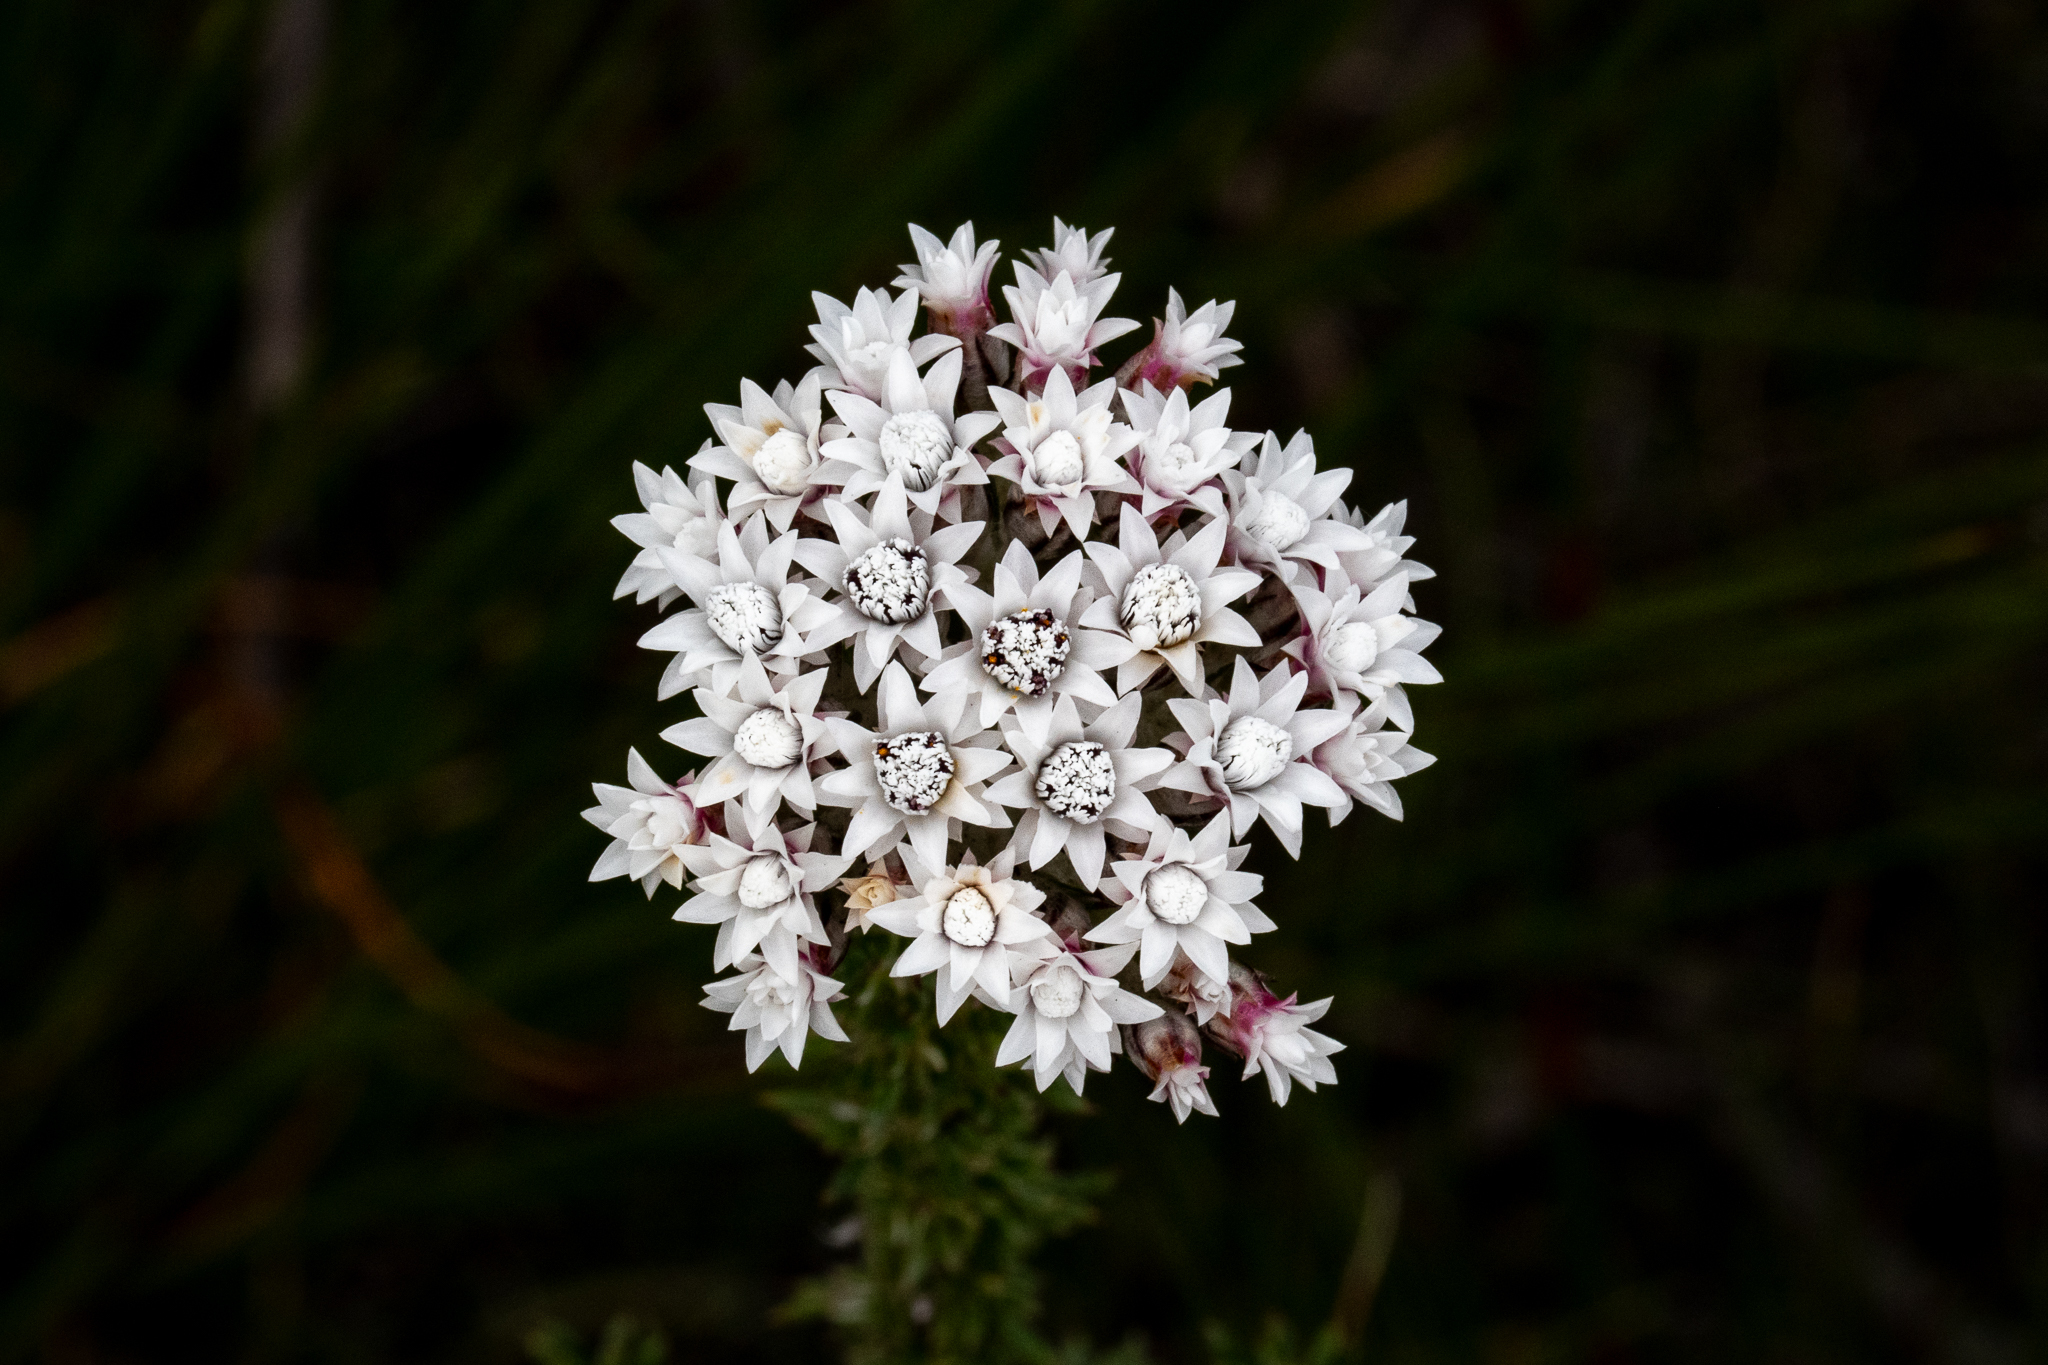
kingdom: Plantae
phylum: Tracheophyta
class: Magnoliopsida
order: Asterales
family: Asteraceae
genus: Metalasia
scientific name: Metalasia lichtensteinii
